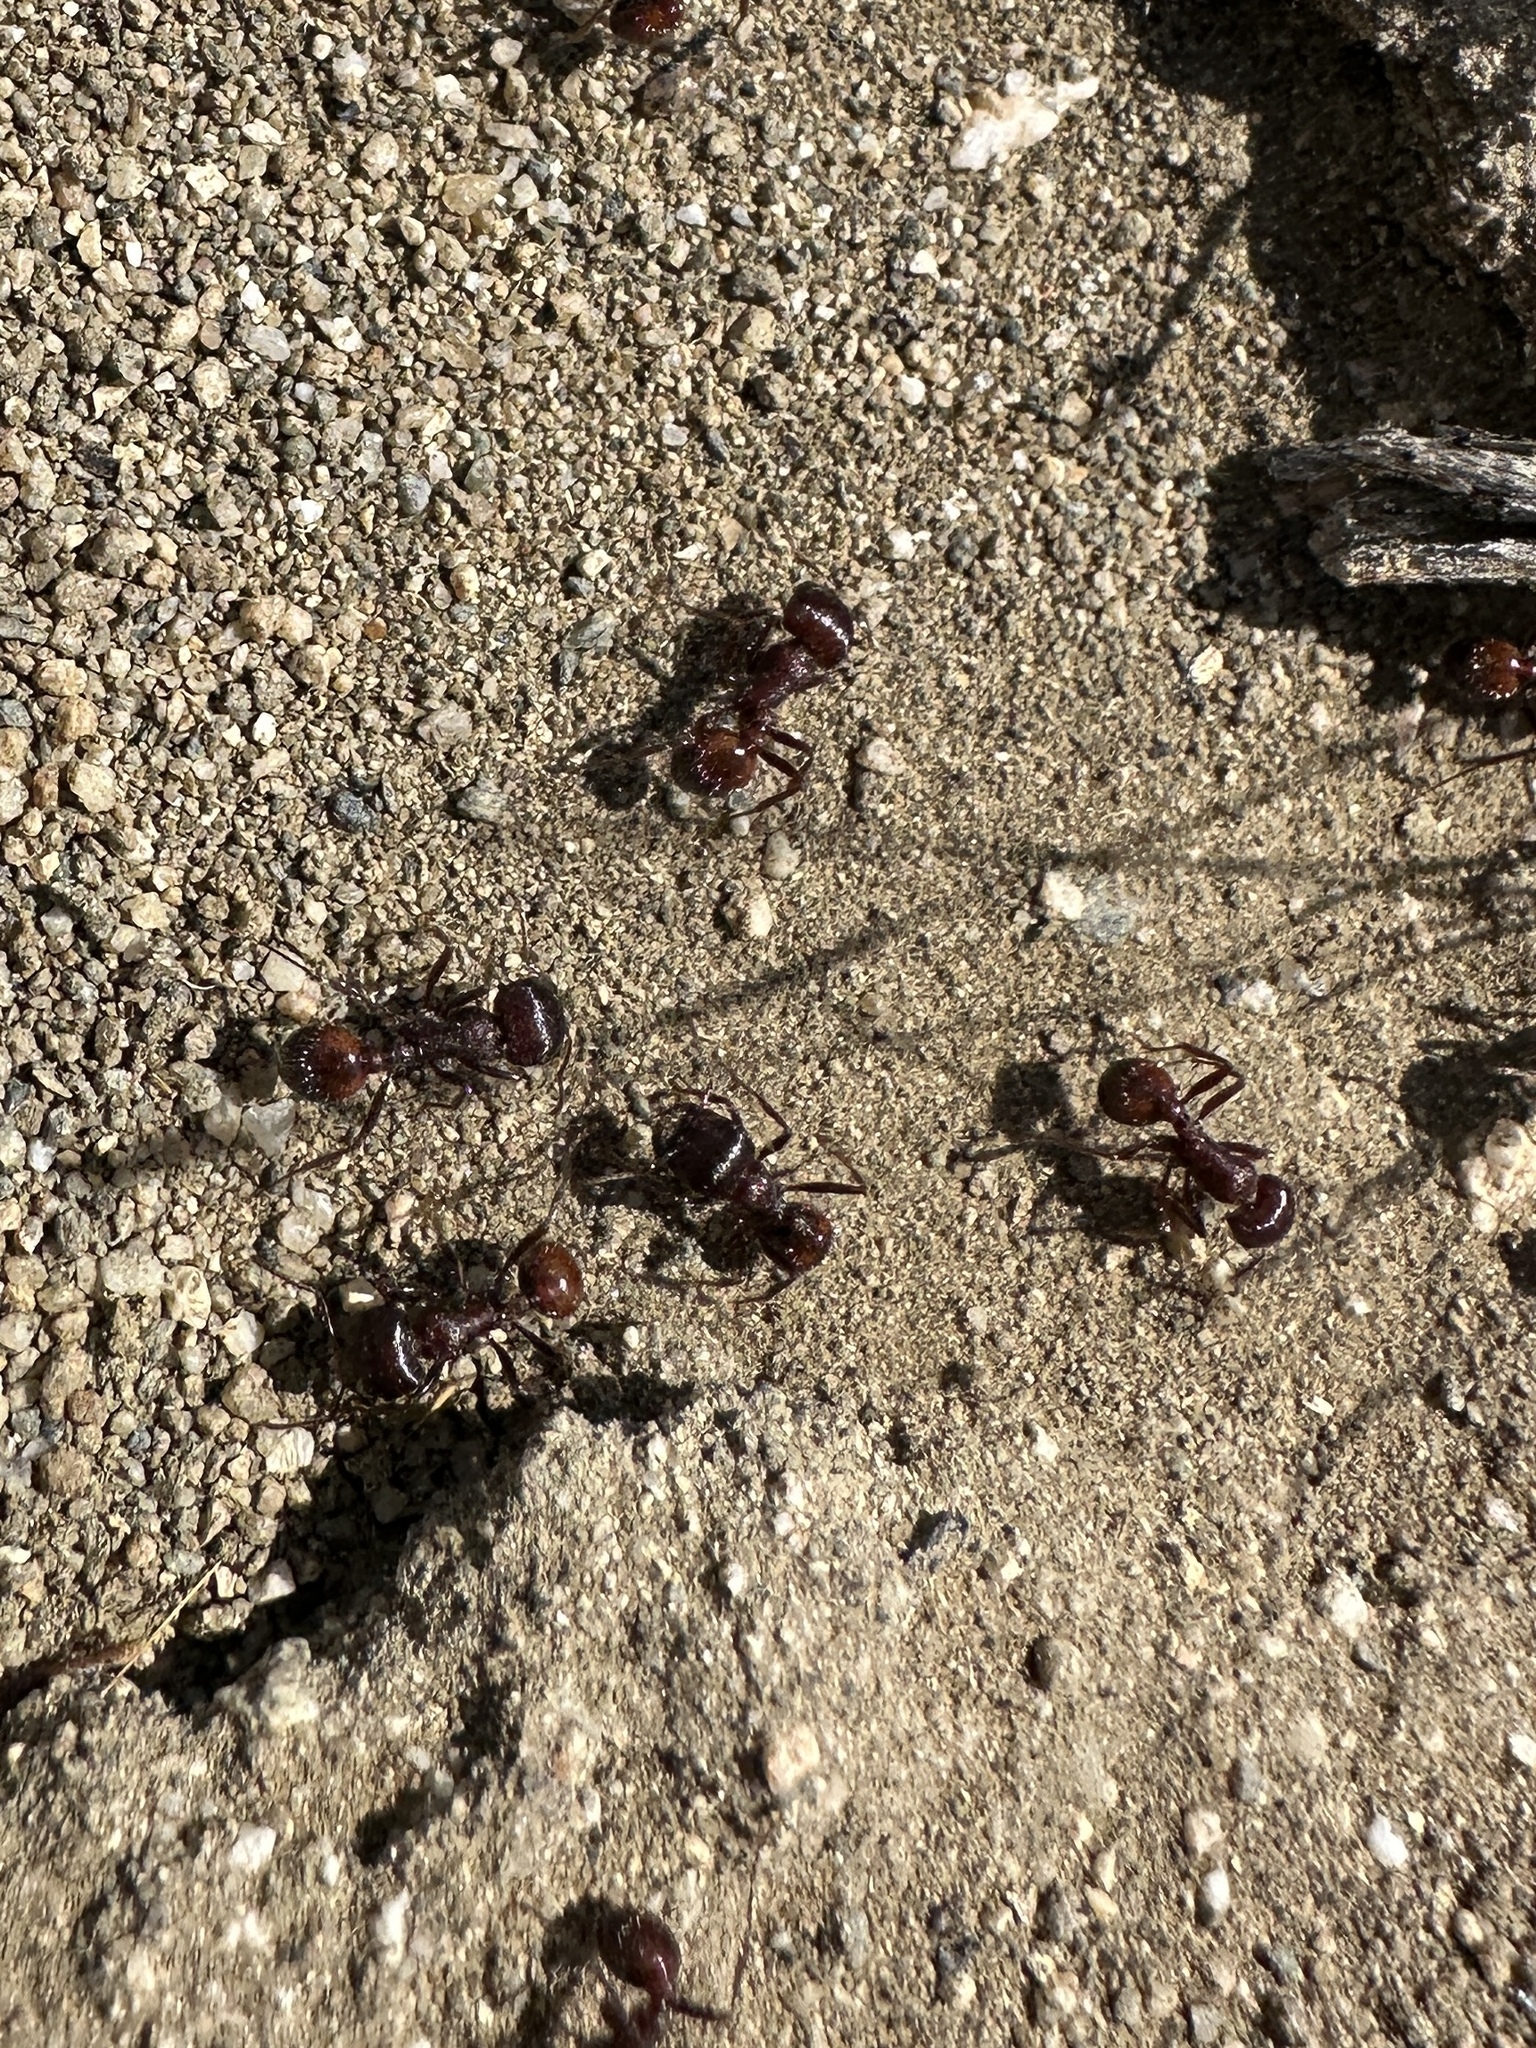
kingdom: Animalia
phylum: Arthropoda
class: Insecta
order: Hymenoptera
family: Formicidae
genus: Pogonomyrmex
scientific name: Pogonomyrmex rugosus
